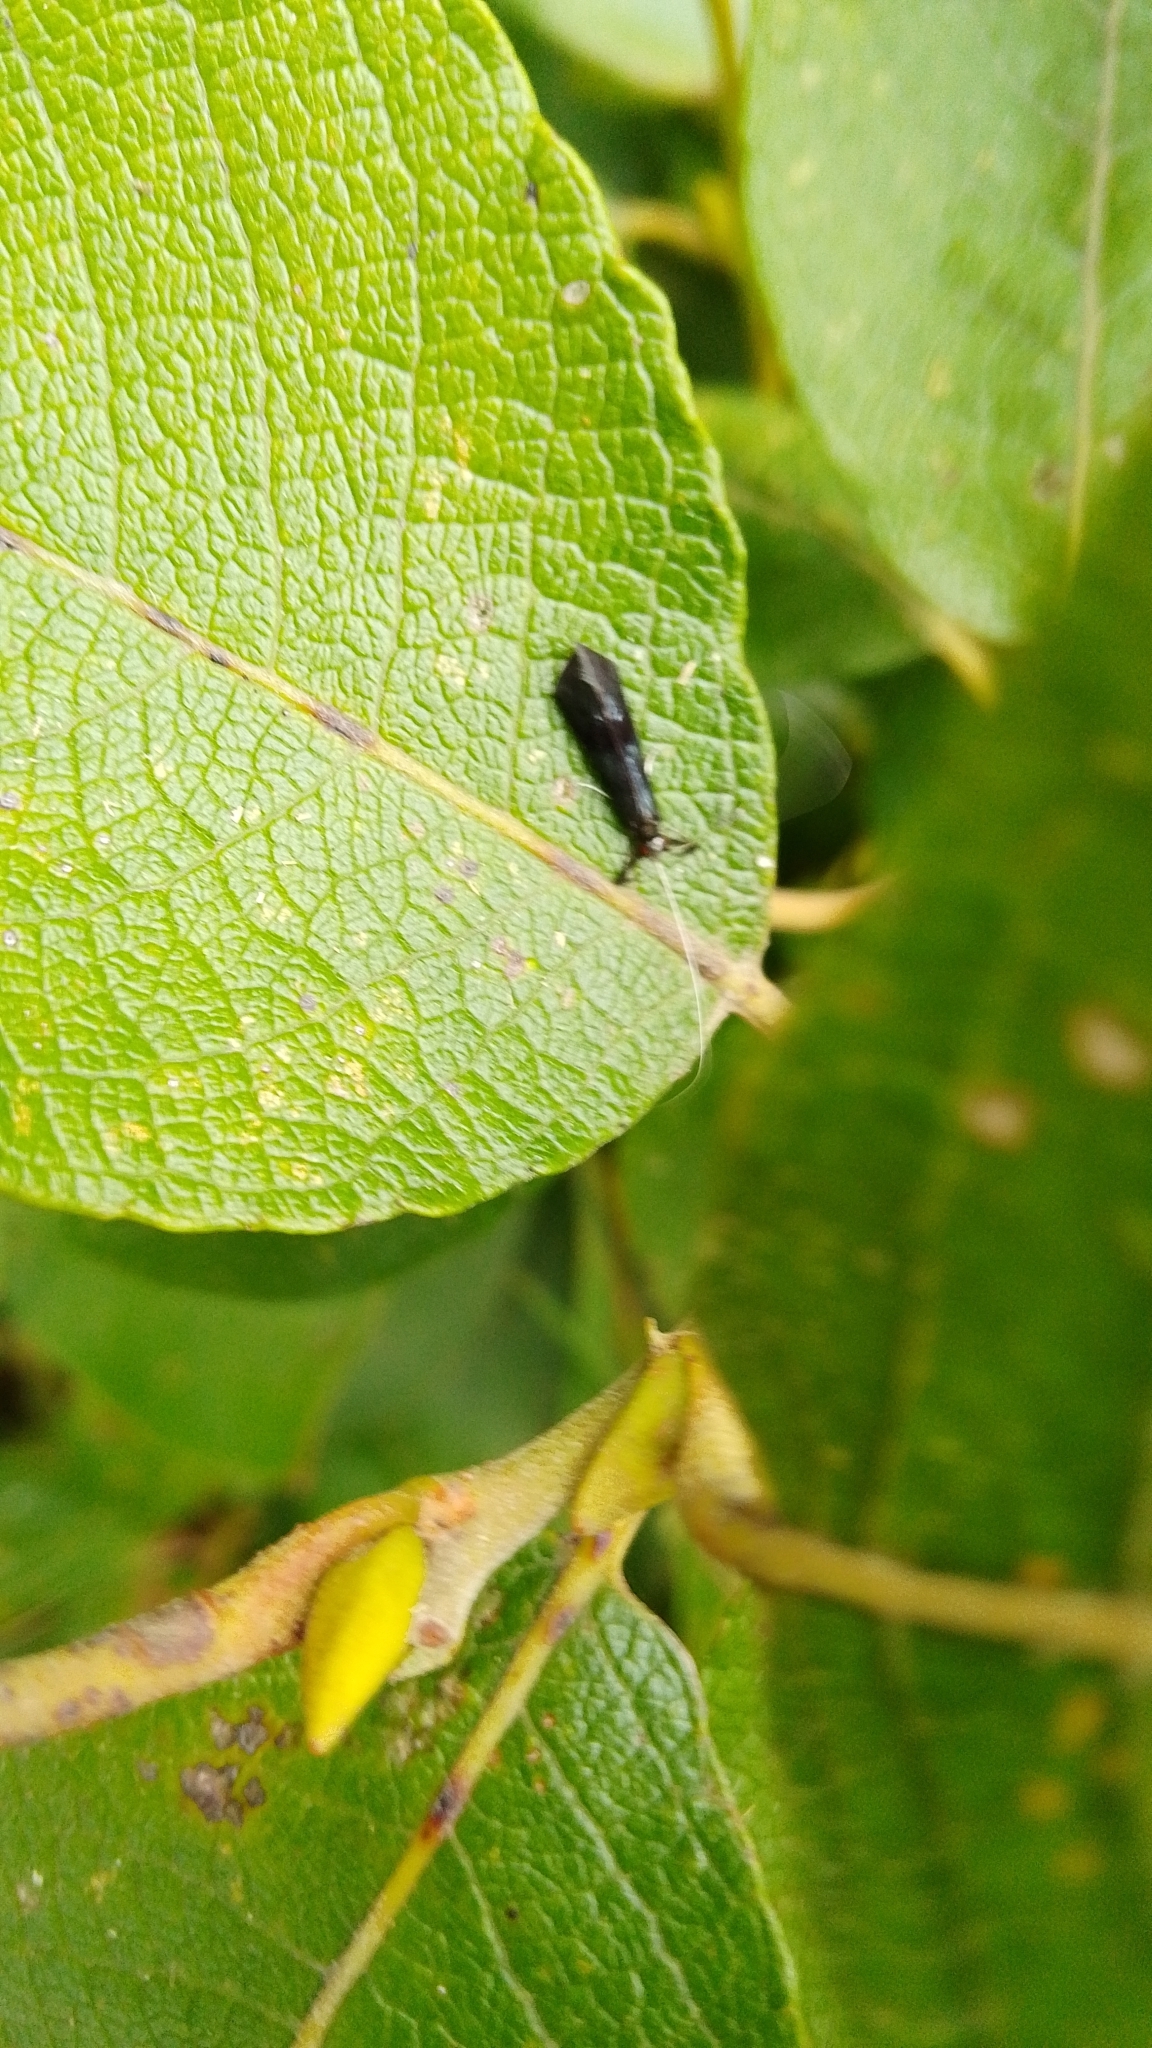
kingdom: Animalia
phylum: Arthropoda
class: Insecta
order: Trichoptera
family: Leptoceridae
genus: Mystacides
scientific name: Mystacides azureus
